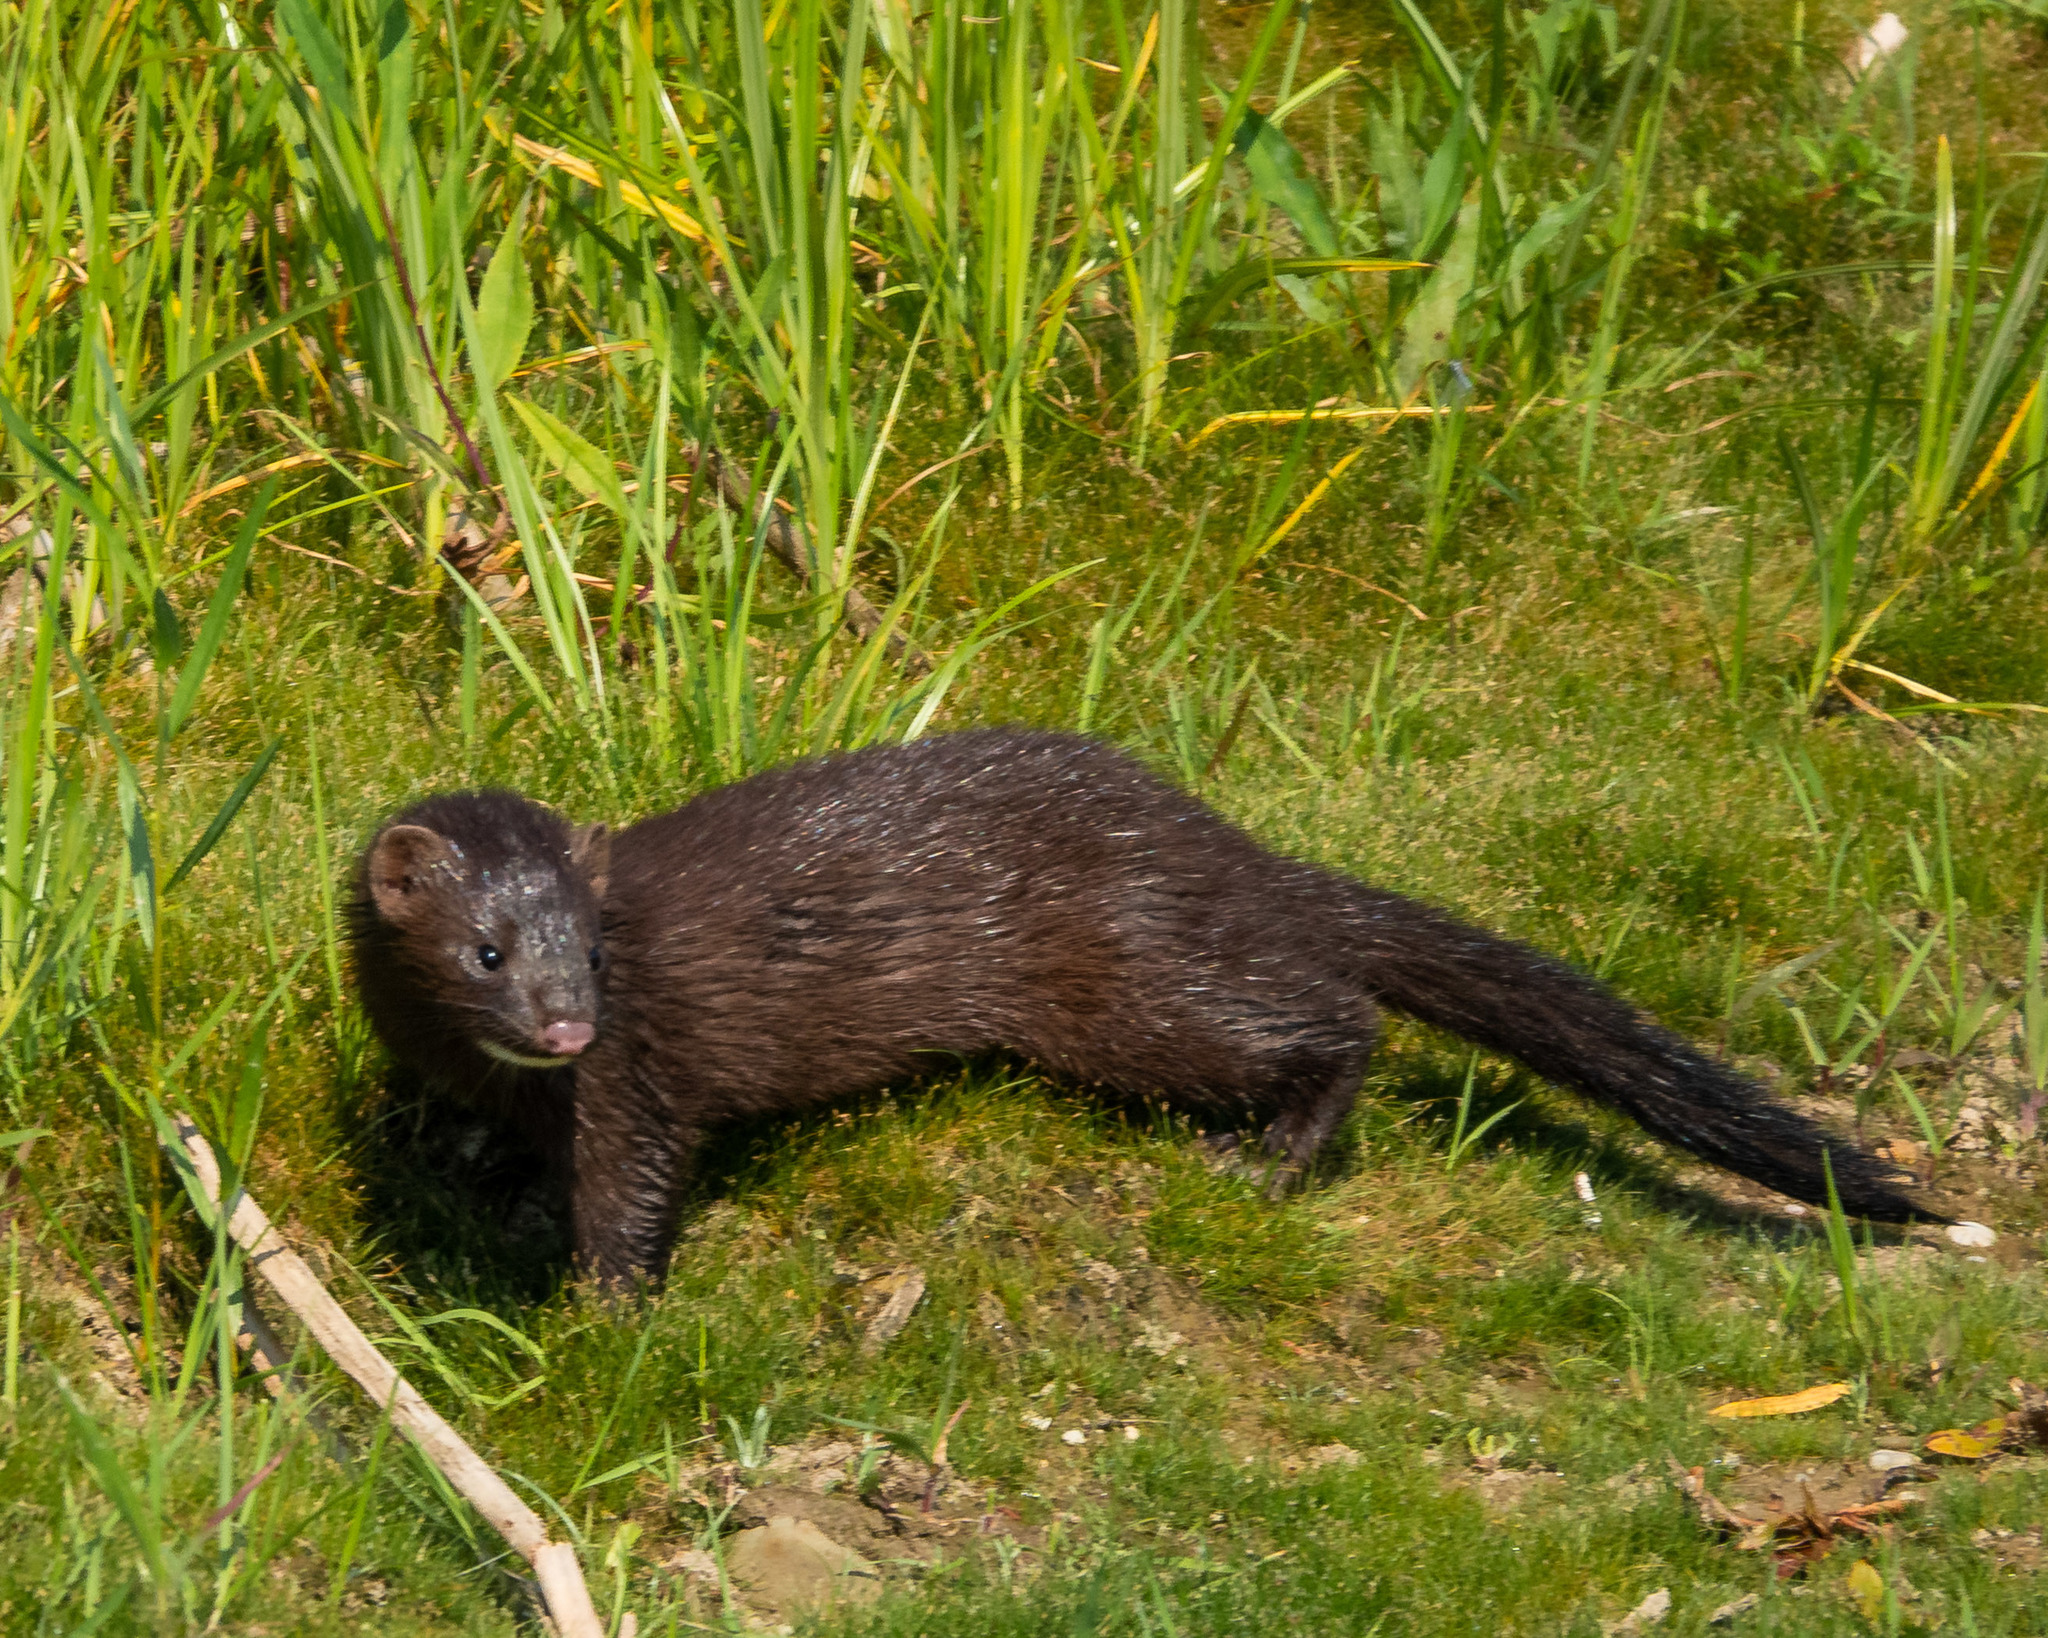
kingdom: Animalia
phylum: Chordata
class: Mammalia
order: Carnivora
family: Mustelidae
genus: Mustela
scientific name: Mustela
